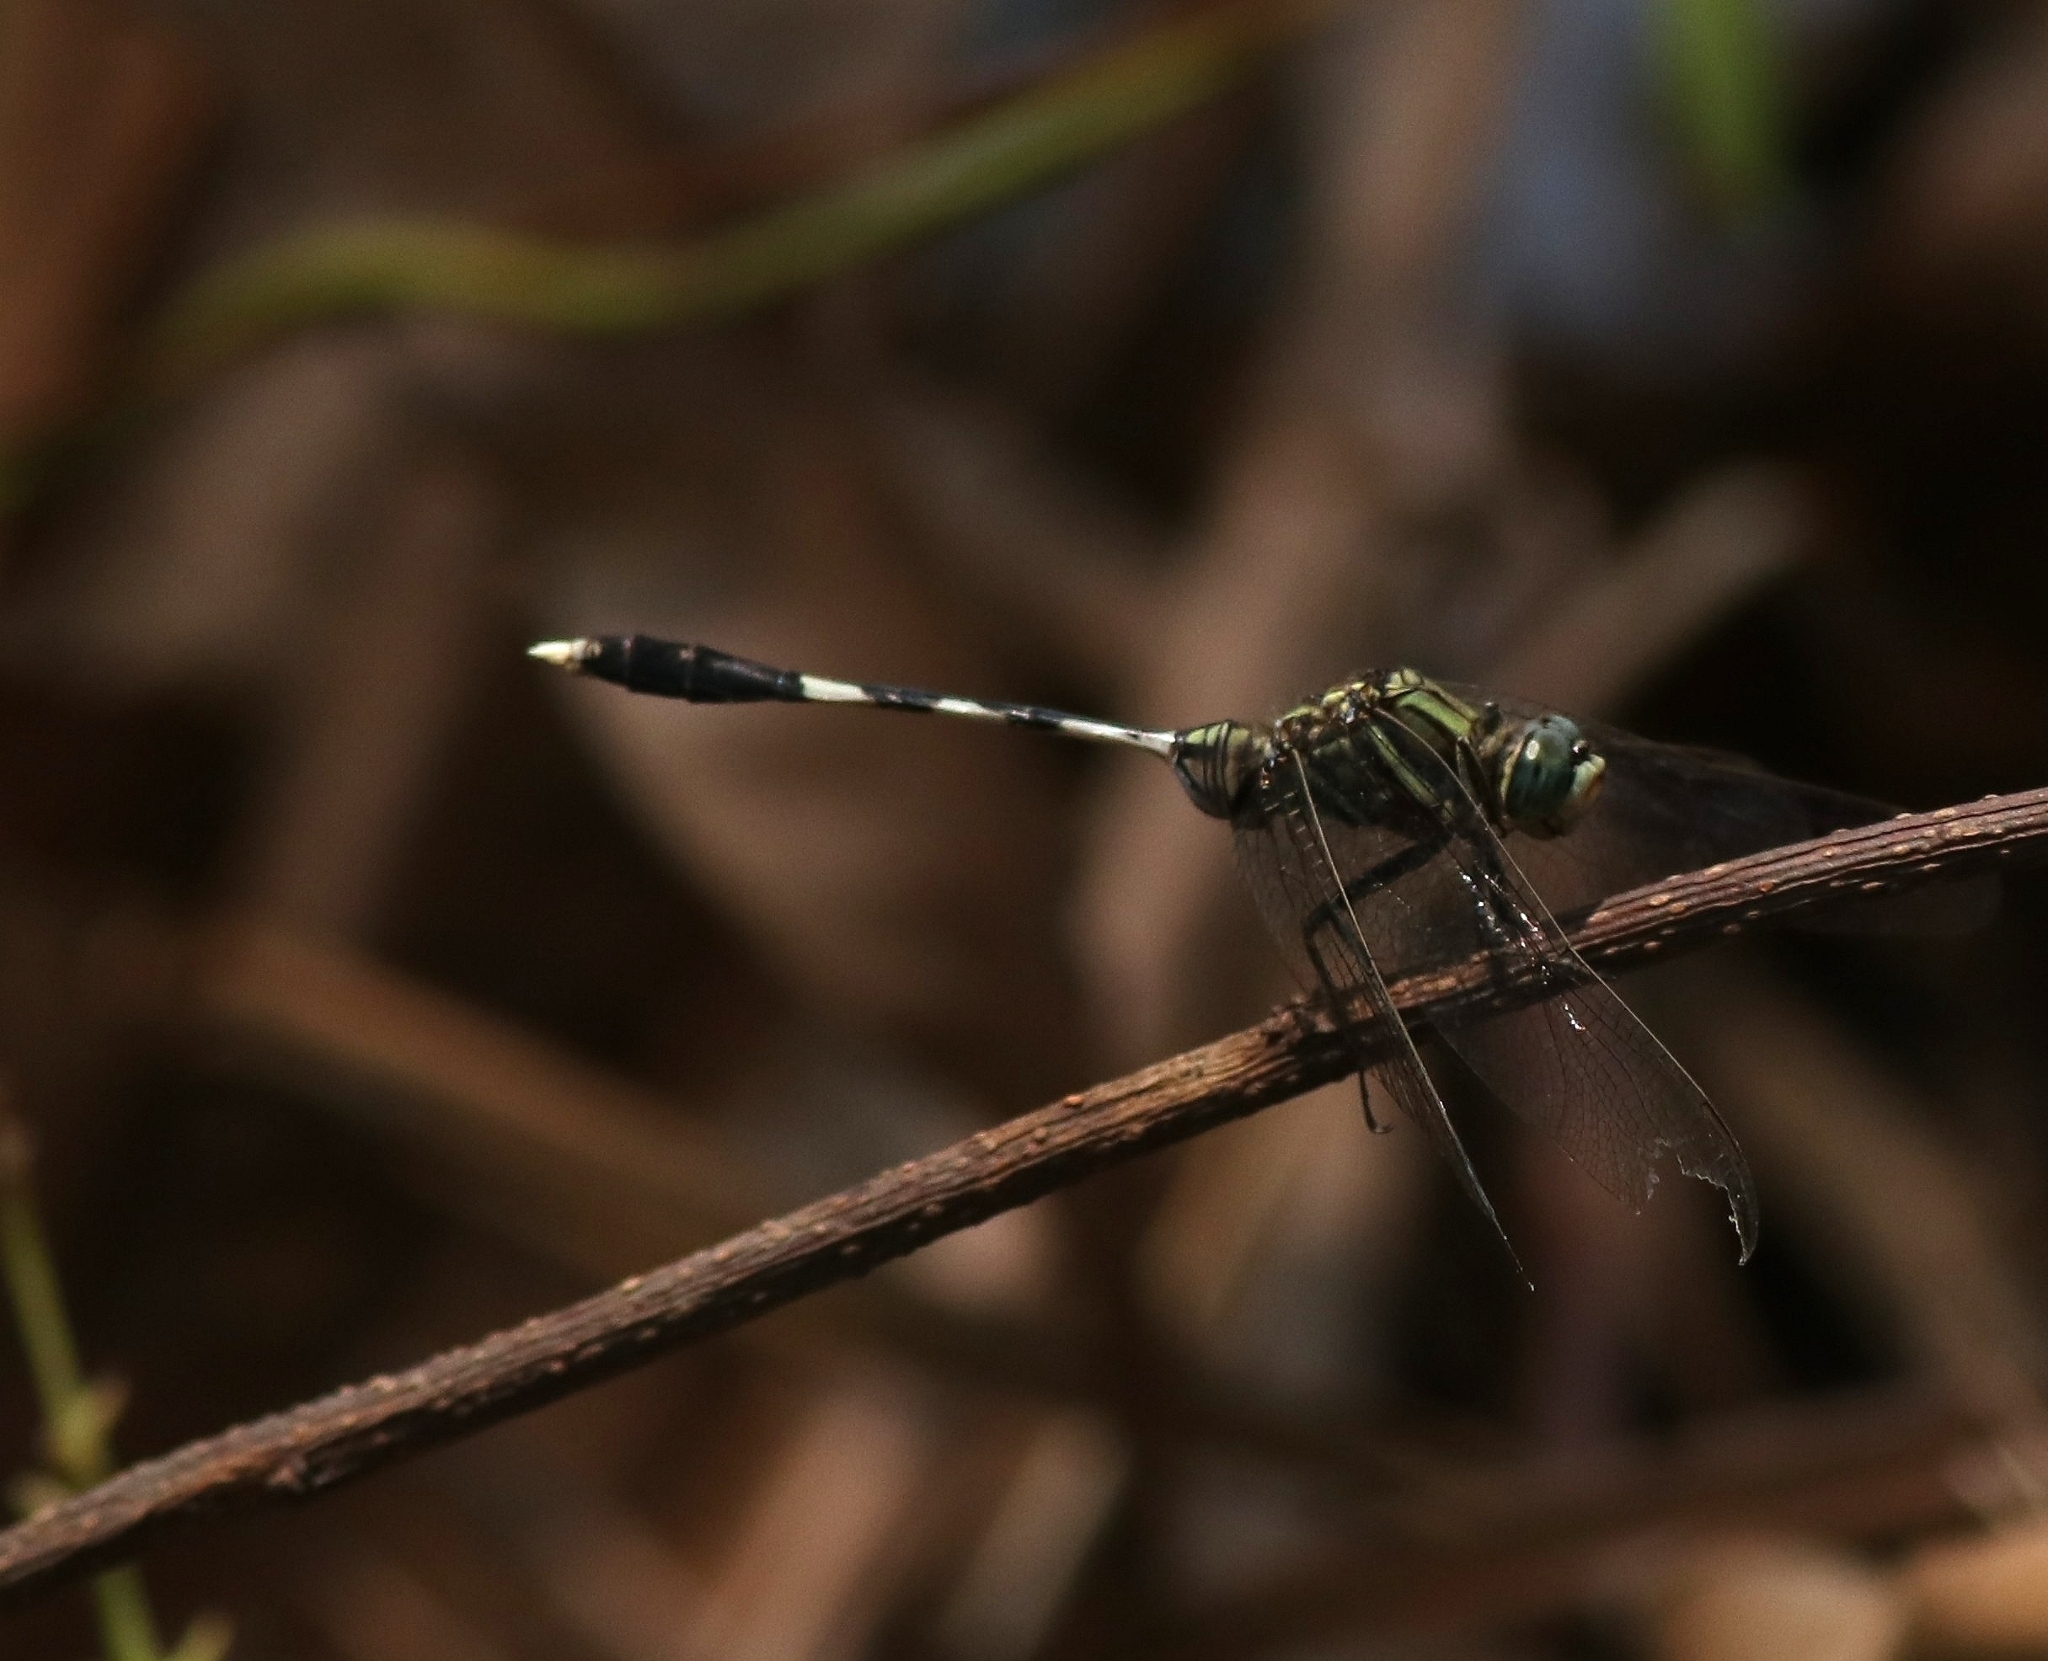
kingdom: Animalia
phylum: Arthropoda
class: Insecta
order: Odonata
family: Libellulidae
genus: Orthetrum
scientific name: Orthetrum sabina
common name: Slender skimmer
